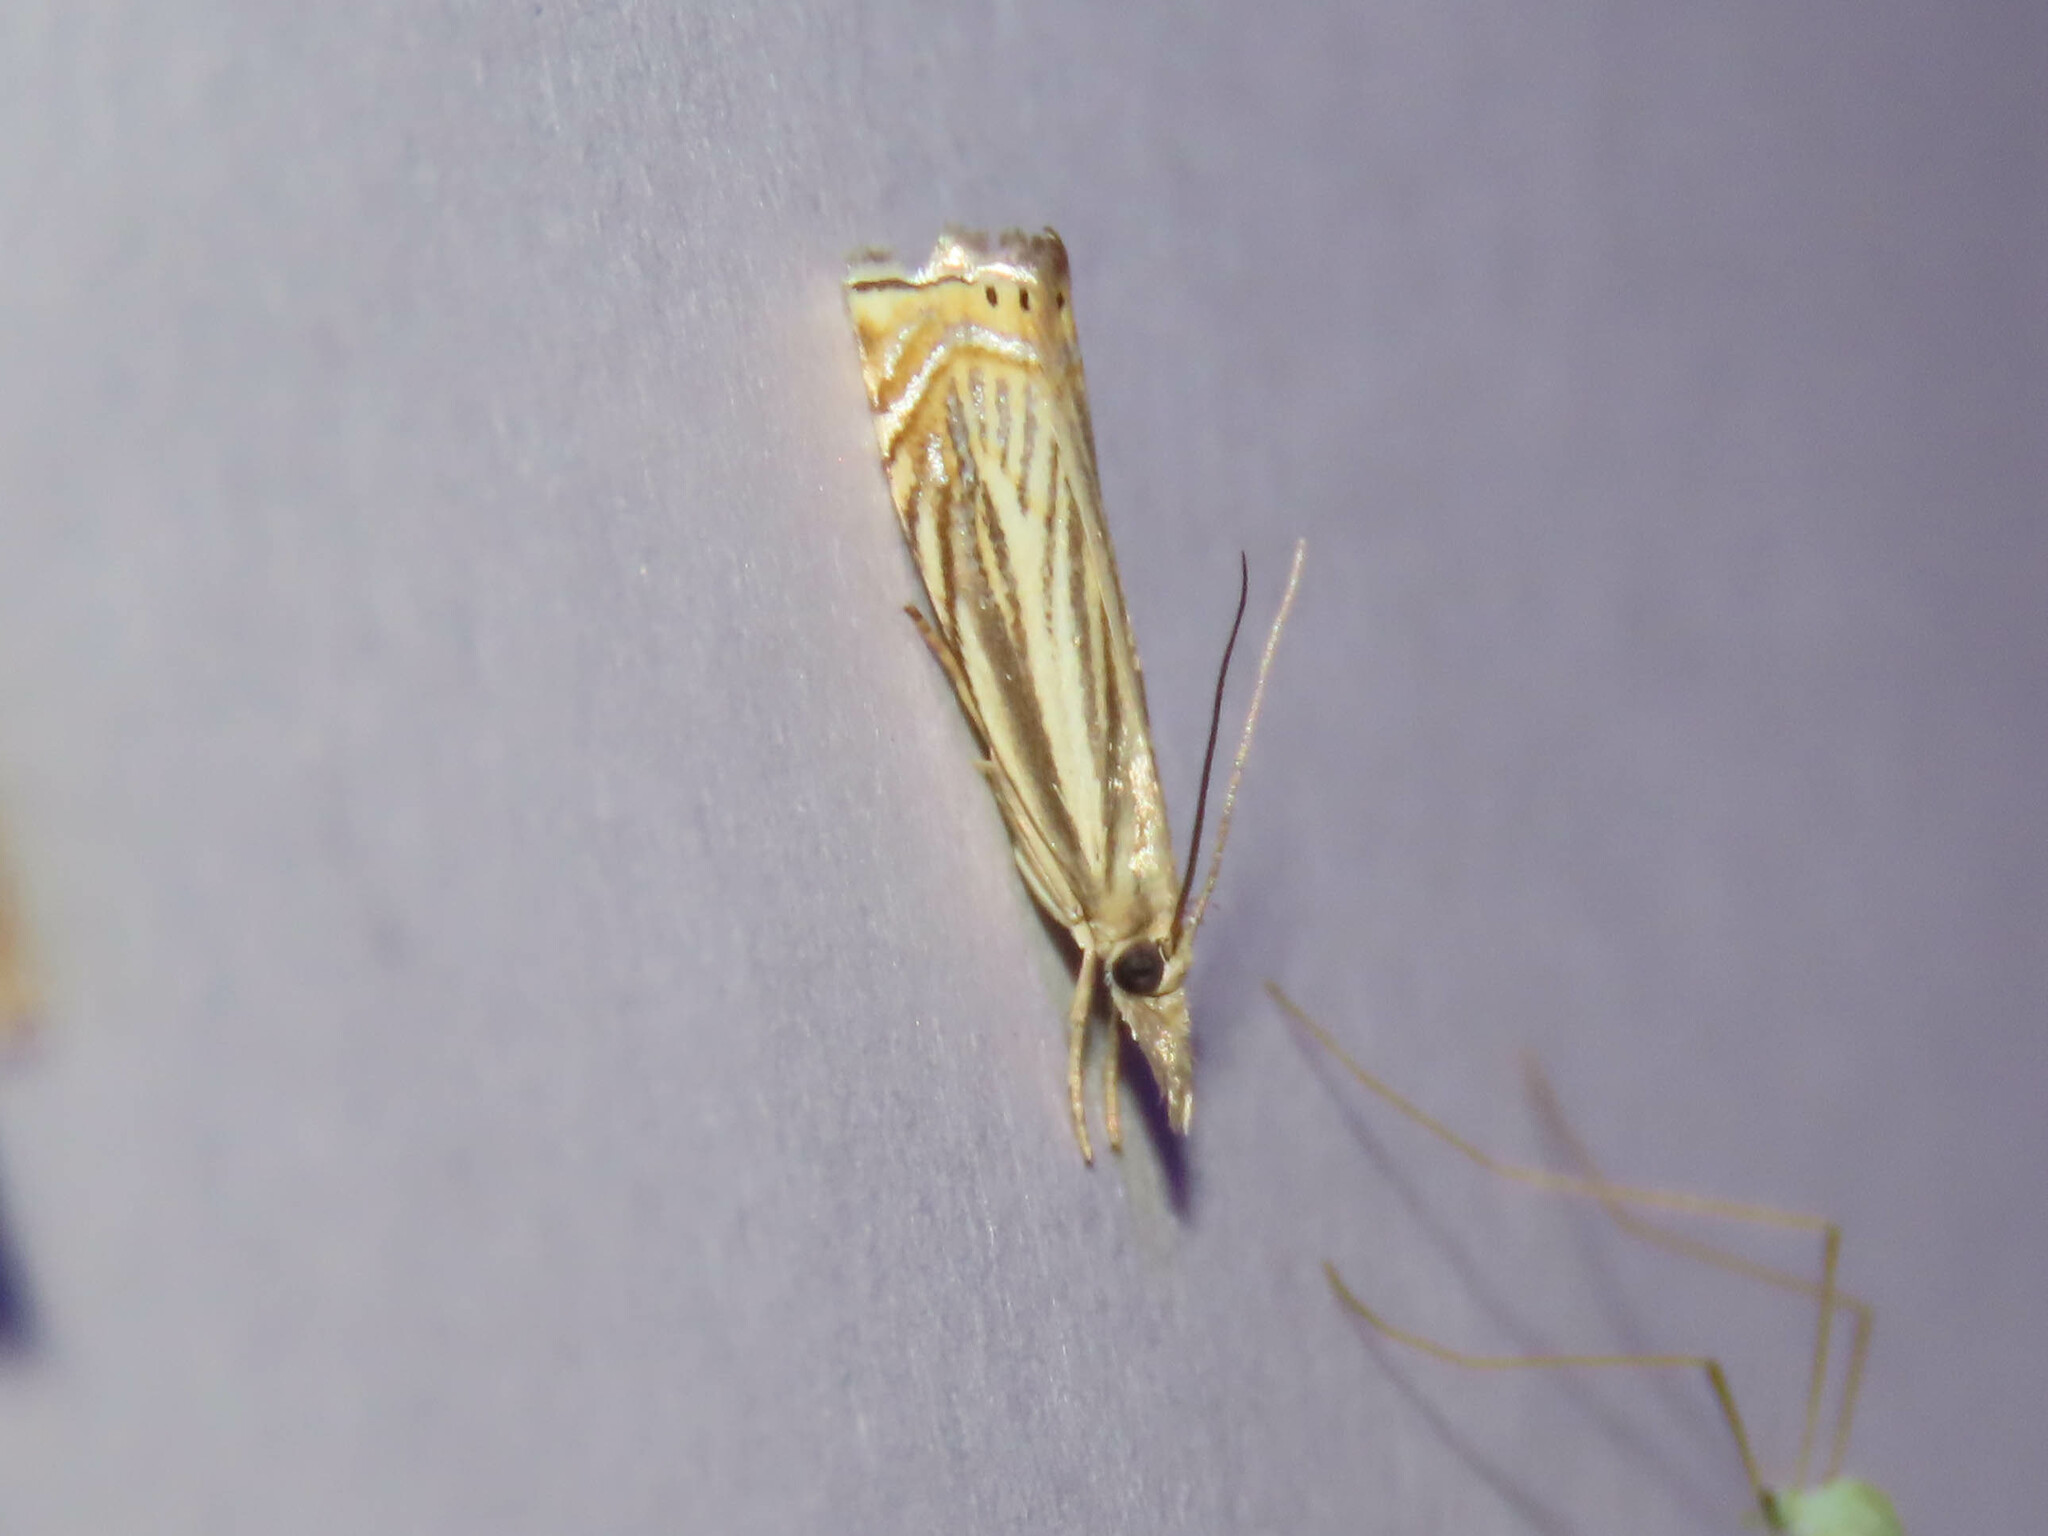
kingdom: Animalia
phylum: Arthropoda
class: Insecta
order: Lepidoptera
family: Crambidae
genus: Chrysoteuchia
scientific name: Chrysoteuchia topiarius
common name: Topiary grass-veneer
